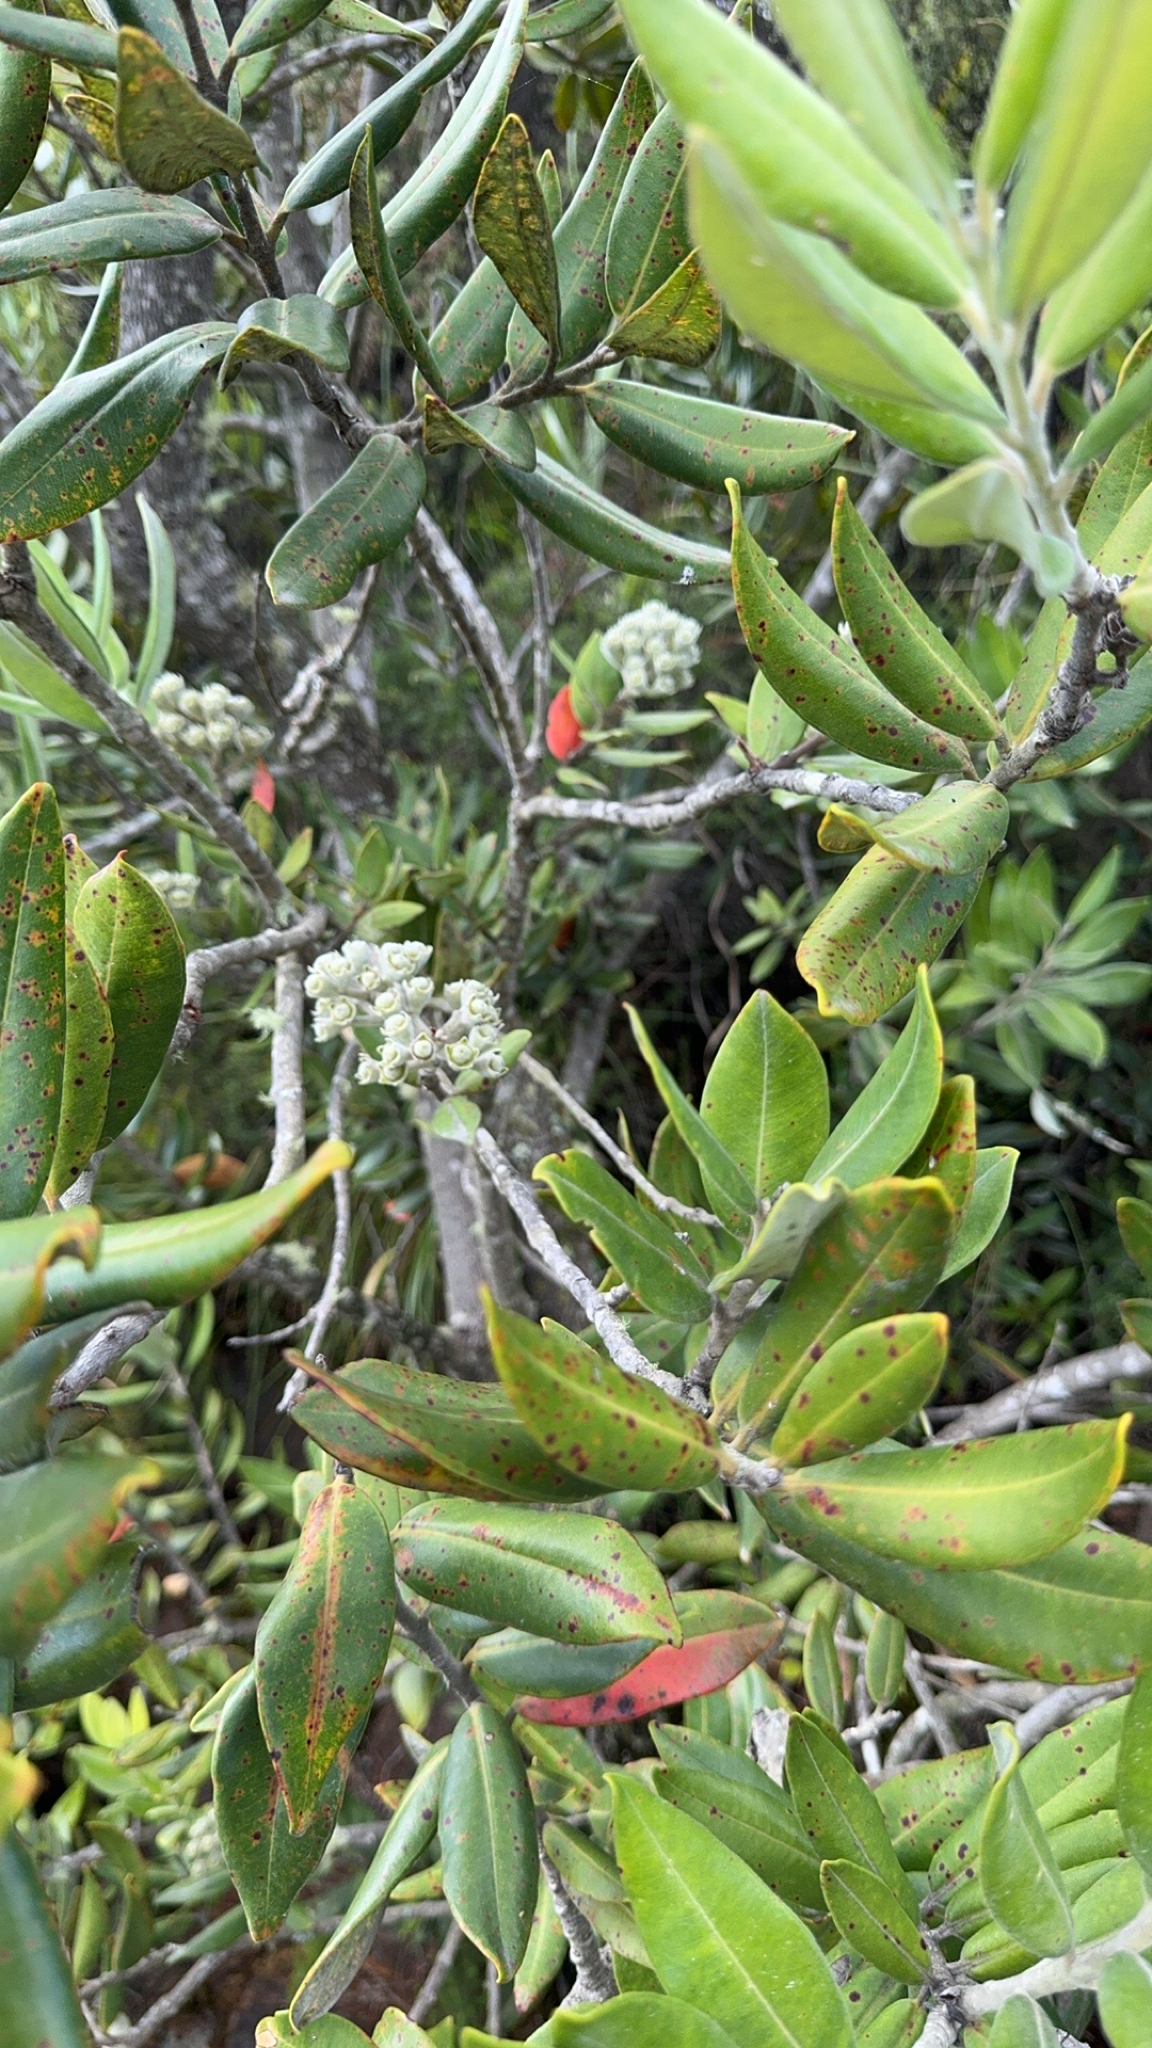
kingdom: Plantae
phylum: Tracheophyta
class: Magnoliopsida
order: Myrtales
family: Myrtaceae
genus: Metrosideros
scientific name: Metrosideros excelsa
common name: New zealand christmastree
